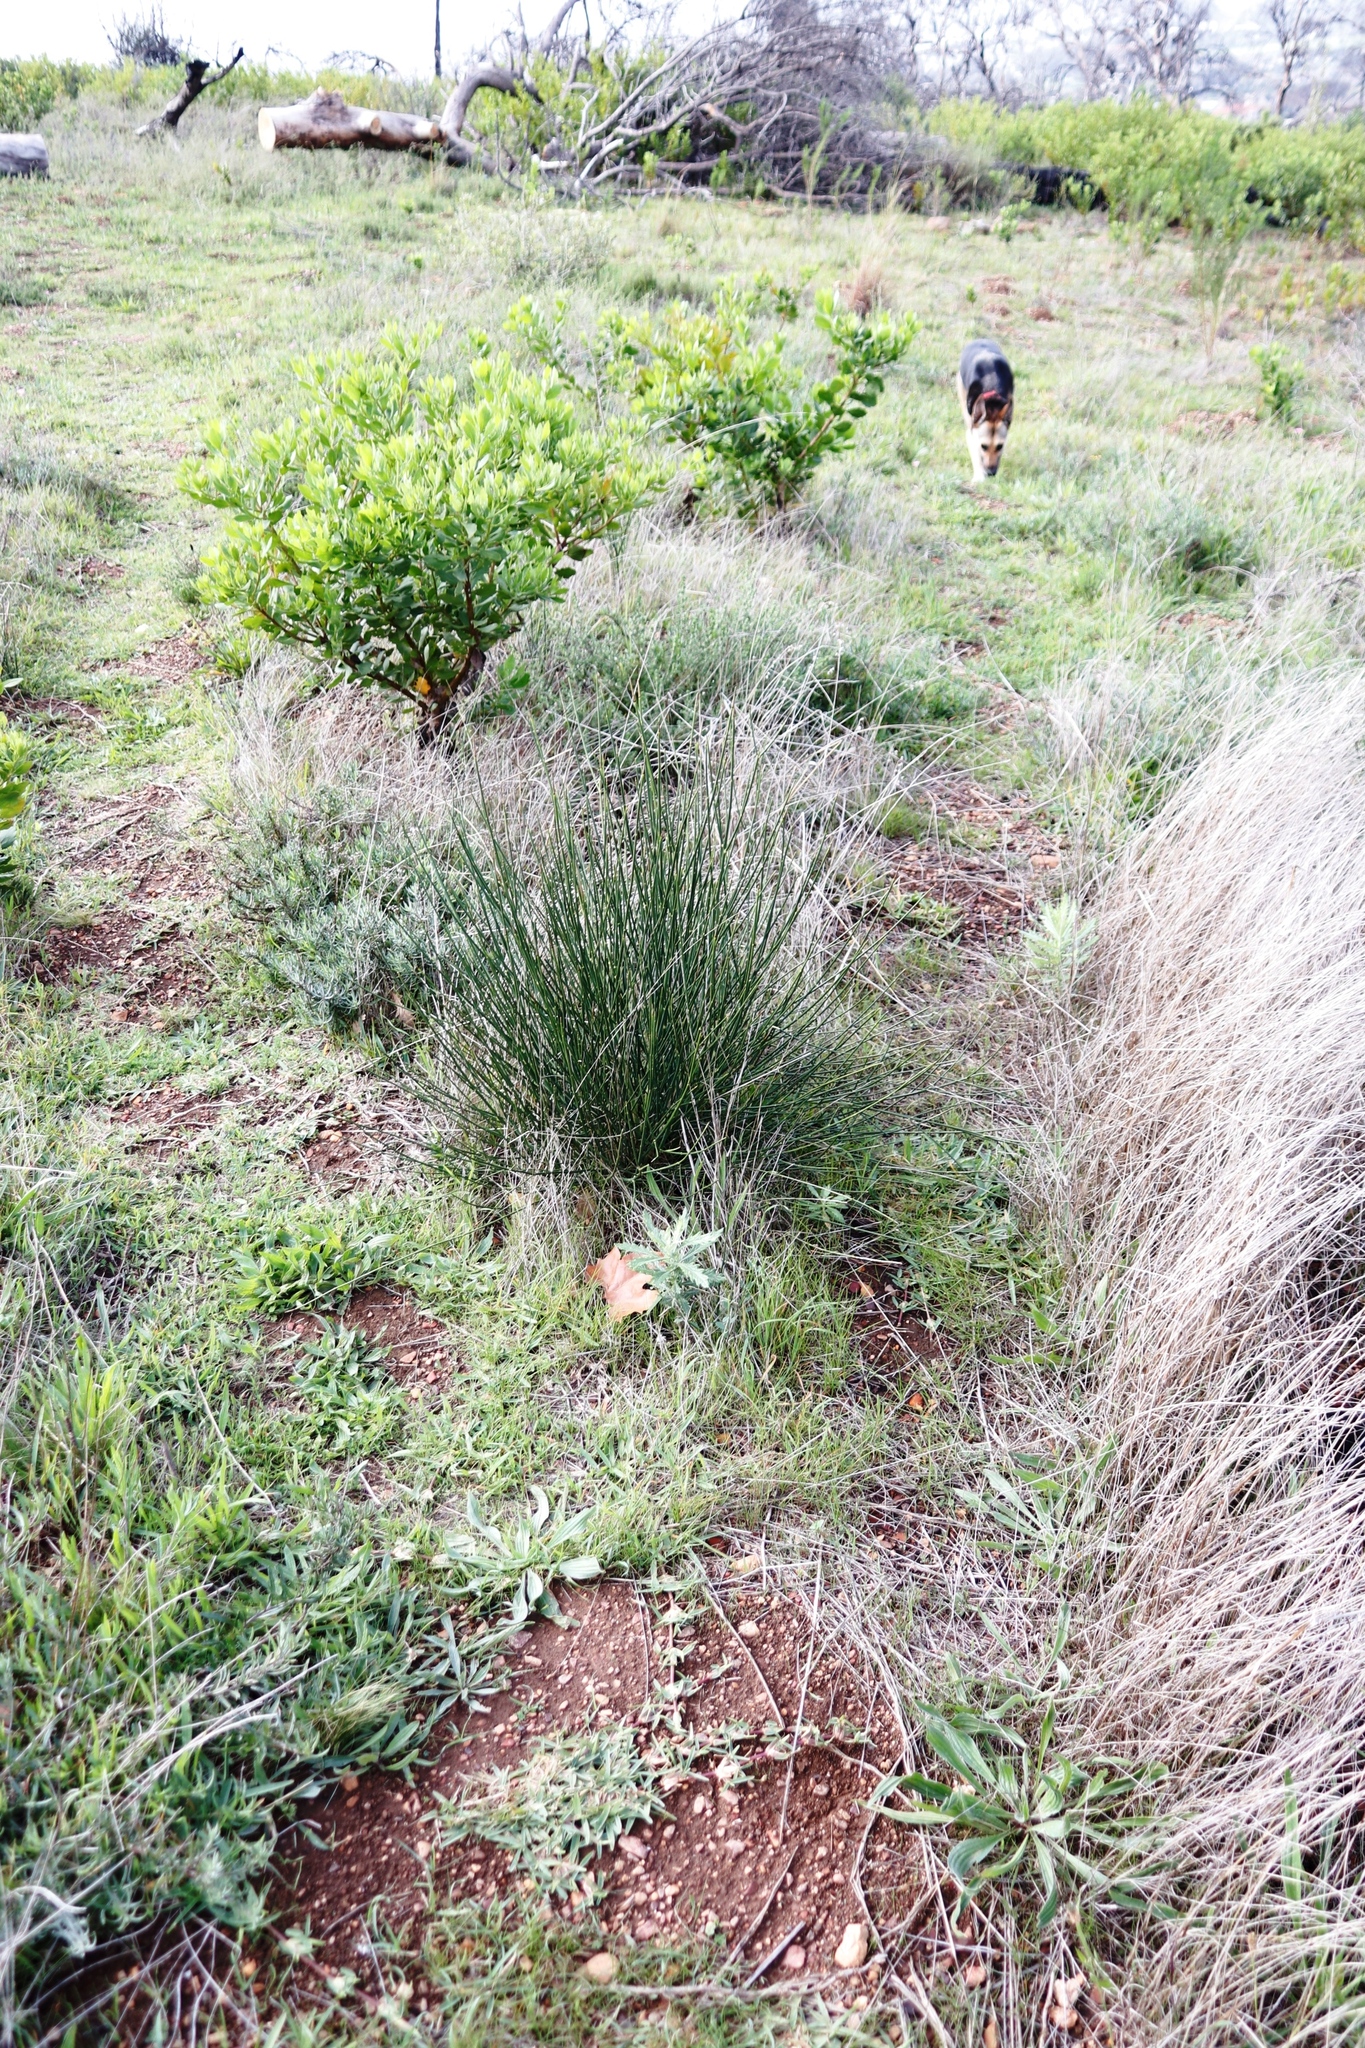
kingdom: Plantae
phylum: Tracheophyta
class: Magnoliopsida
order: Fabales
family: Fabaceae
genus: Spartium
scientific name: Spartium junceum
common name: Spanish broom
